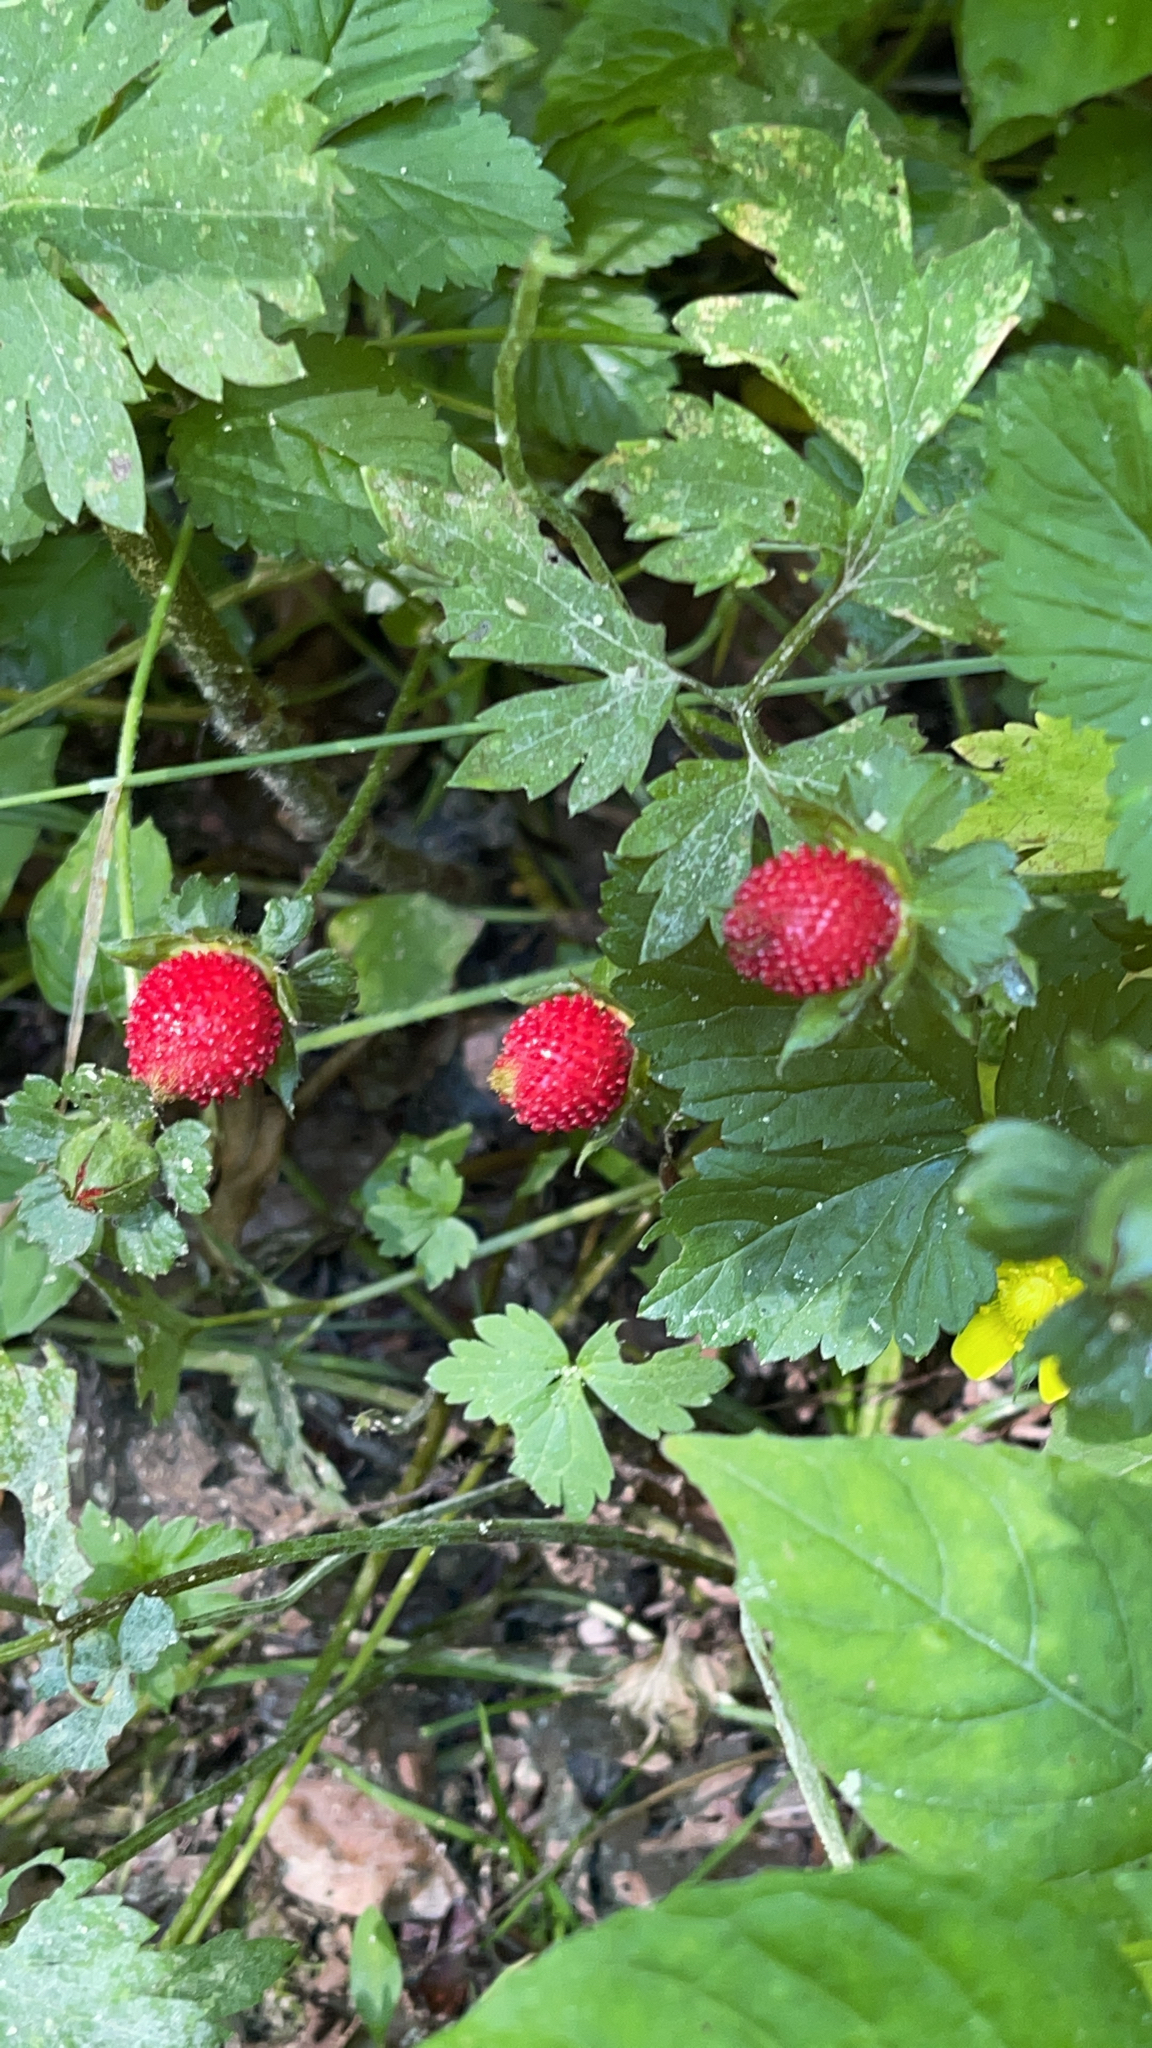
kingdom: Plantae
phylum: Tracheophyta
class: Magnoliopsida
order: Rosales
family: Rosaceae
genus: Potentilla
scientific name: Potentilla indica
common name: Yellow-flowered strawberry
